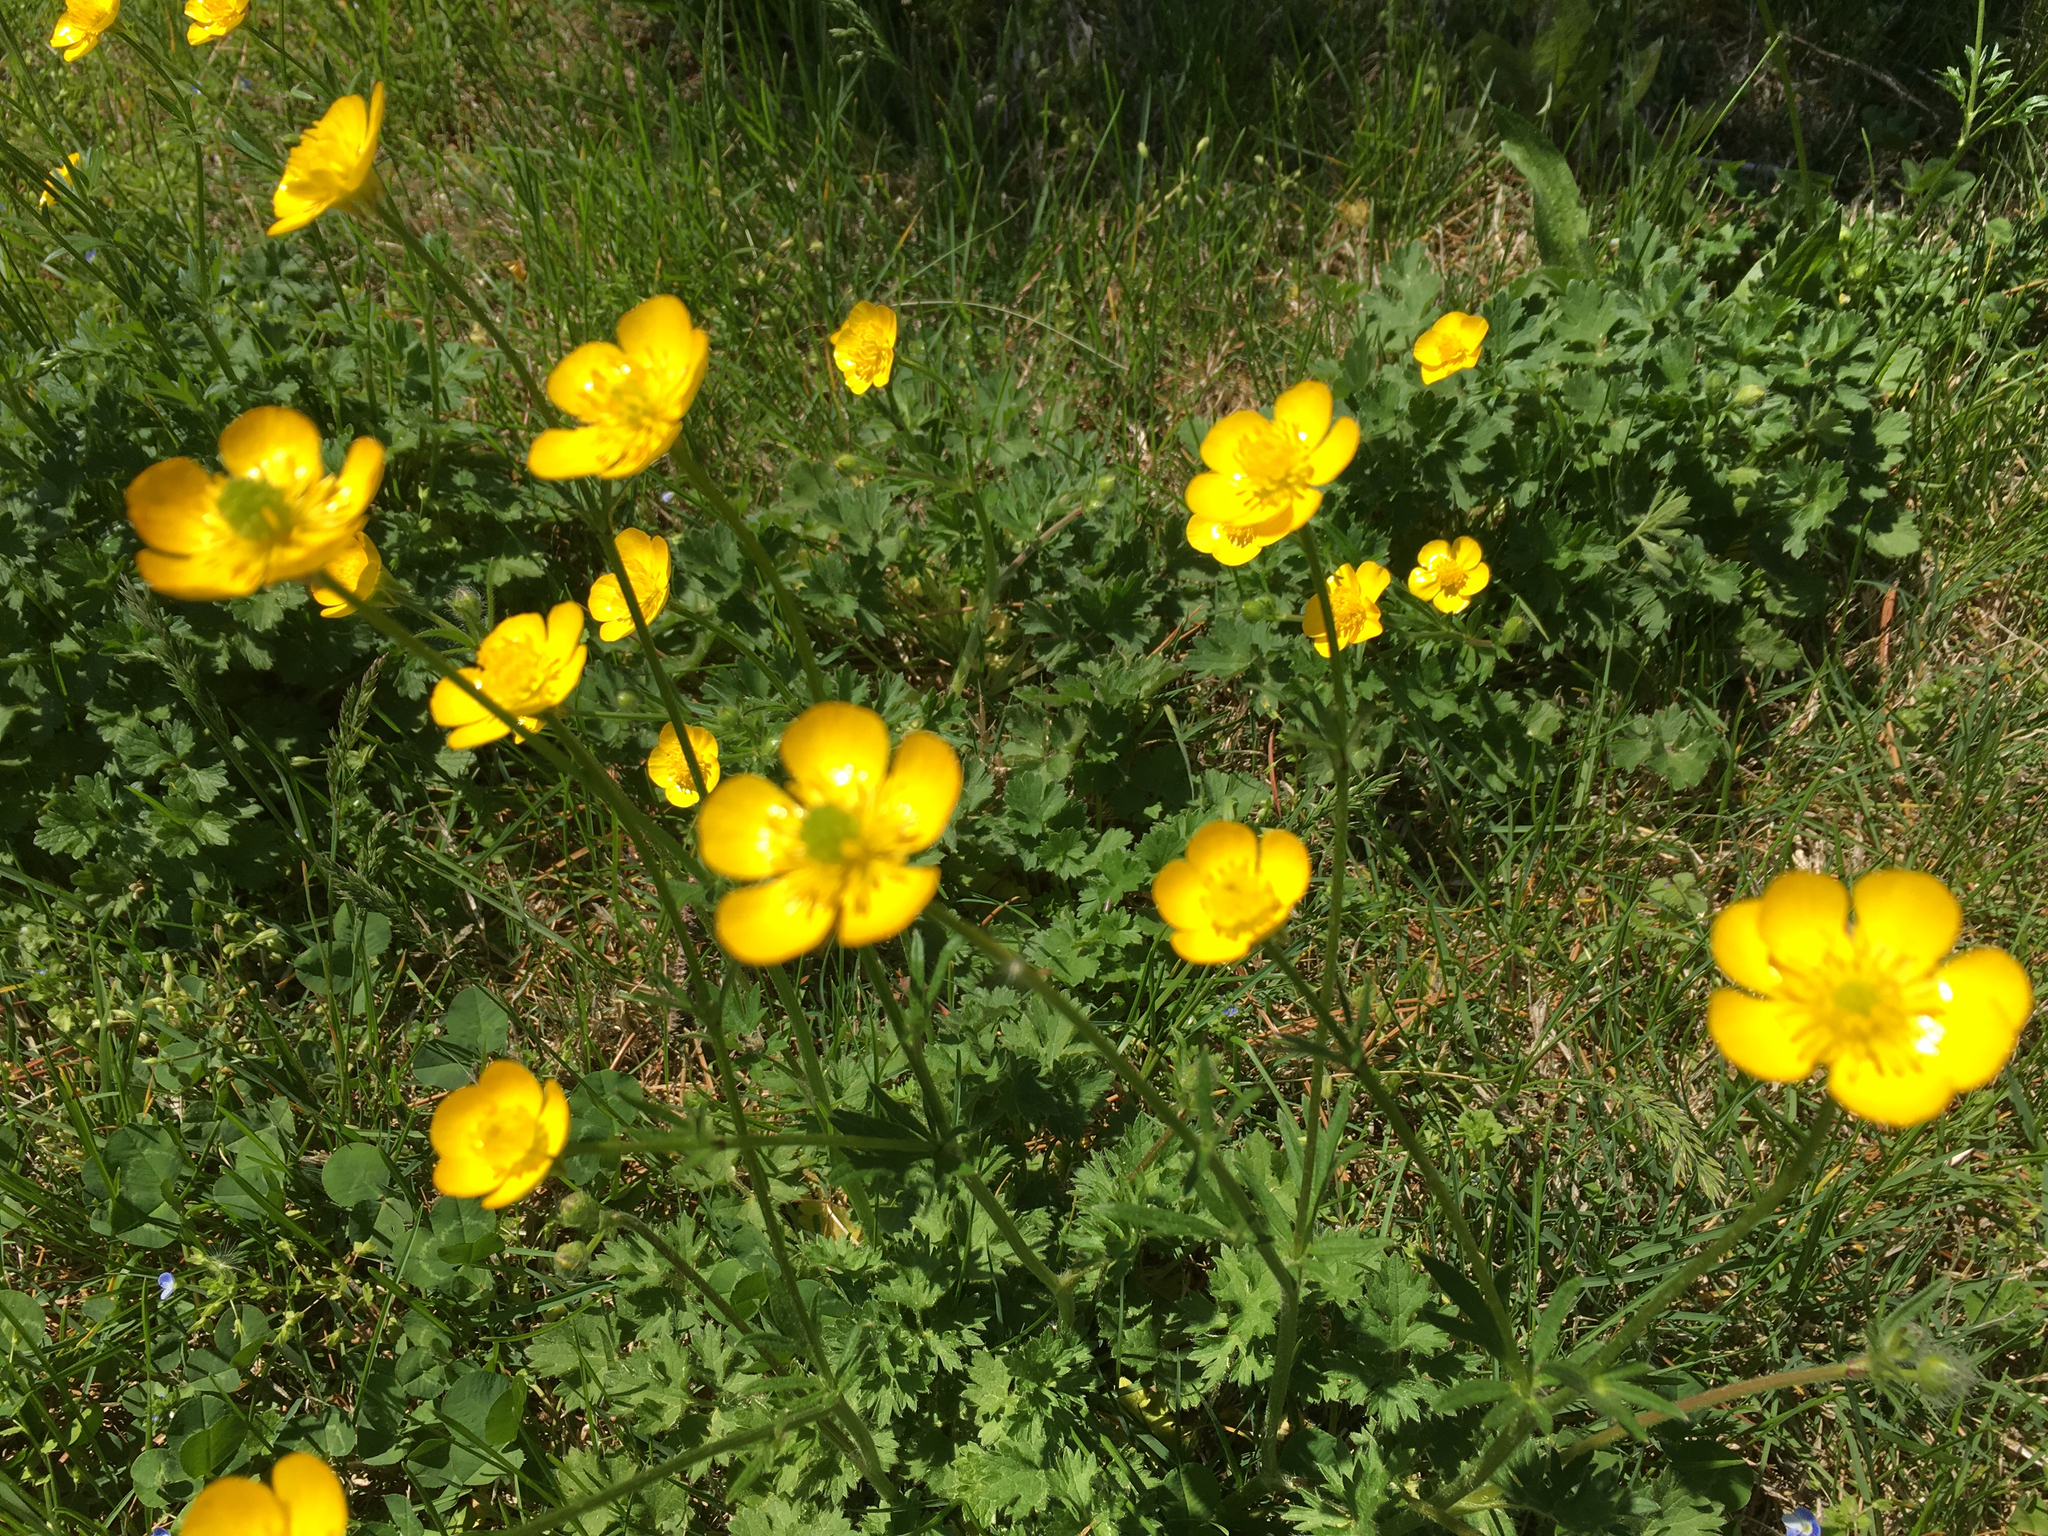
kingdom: Plantae
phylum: Tracheophyta
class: Magnoliopsida
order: Ranunculales
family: Ranunculaceae
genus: Ranunculus
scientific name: Ranunculus repens
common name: Creeping buttercup
